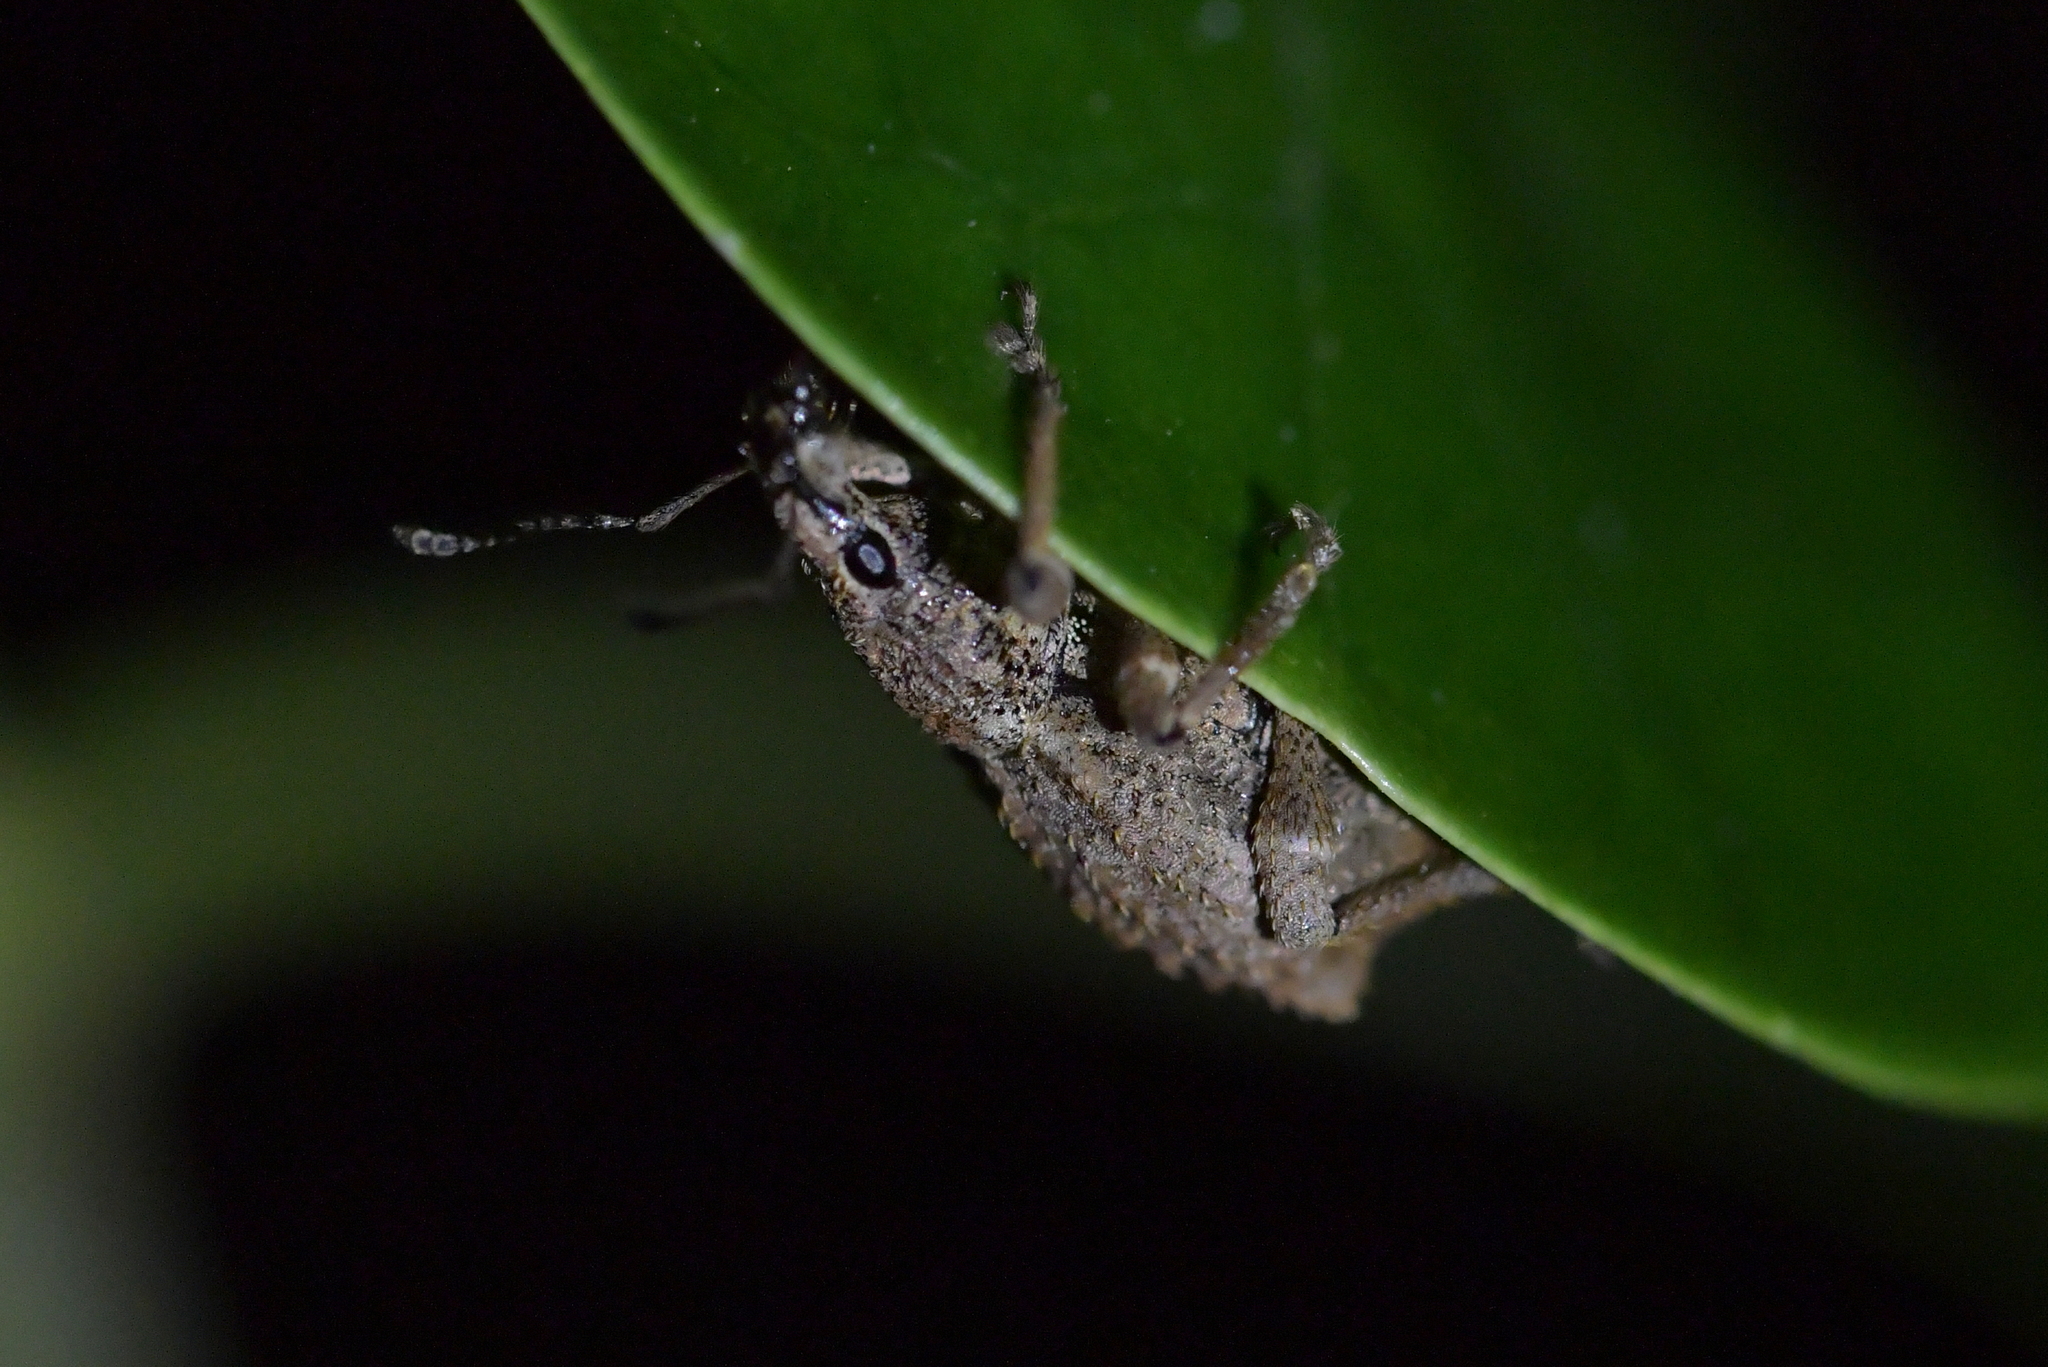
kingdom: Animalia
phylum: Arthropoda
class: Insecta
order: Coleoptera
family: Curculionidae
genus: Catoptes
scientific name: Catoptes binodis
